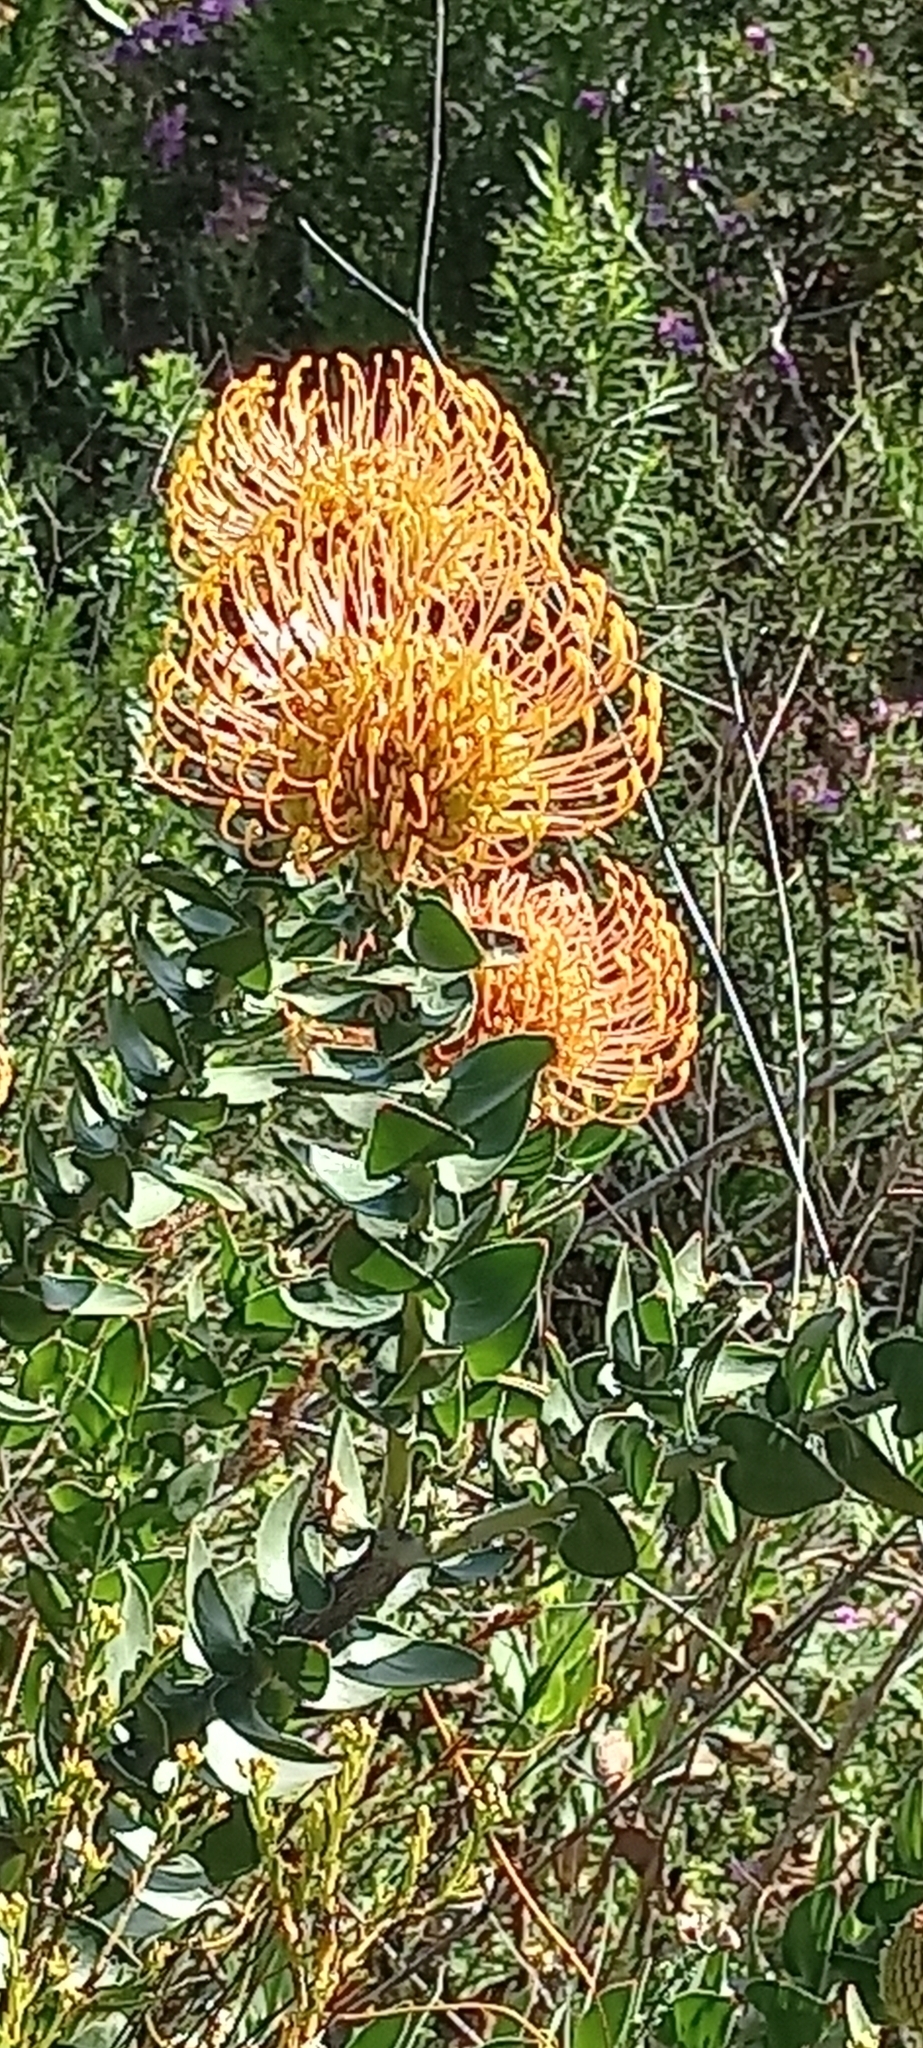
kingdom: Plantae
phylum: Tracheophyta
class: Magnoliopsida
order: Proteales
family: Proteaceae
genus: Leucospermum
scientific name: Leucospermum cordifolium
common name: Red pincushion-protea
